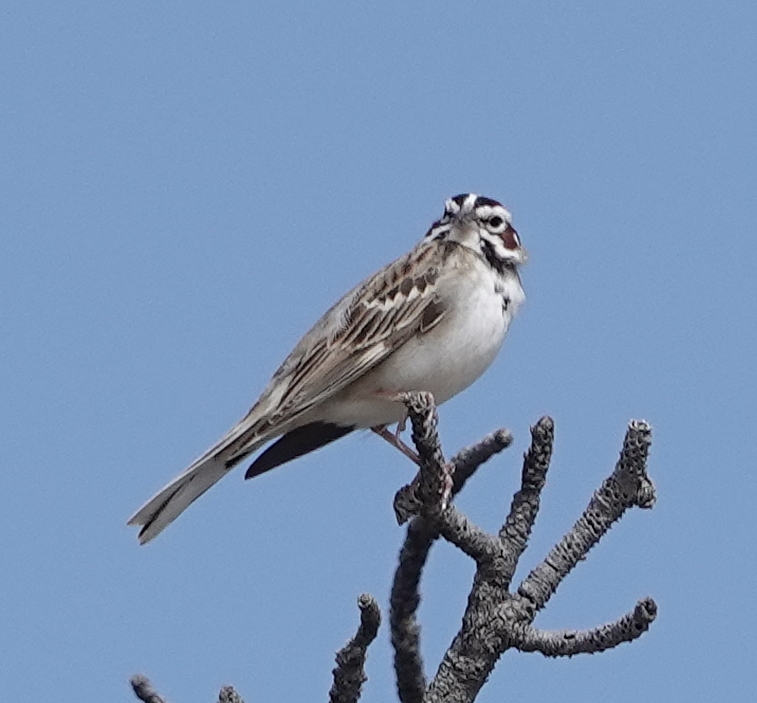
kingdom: Animalia
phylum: Chordata
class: Aves
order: Passeriformes
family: Passerellidae
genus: Chondestes
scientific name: Chondestes grammacus
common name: Lark sparrow
